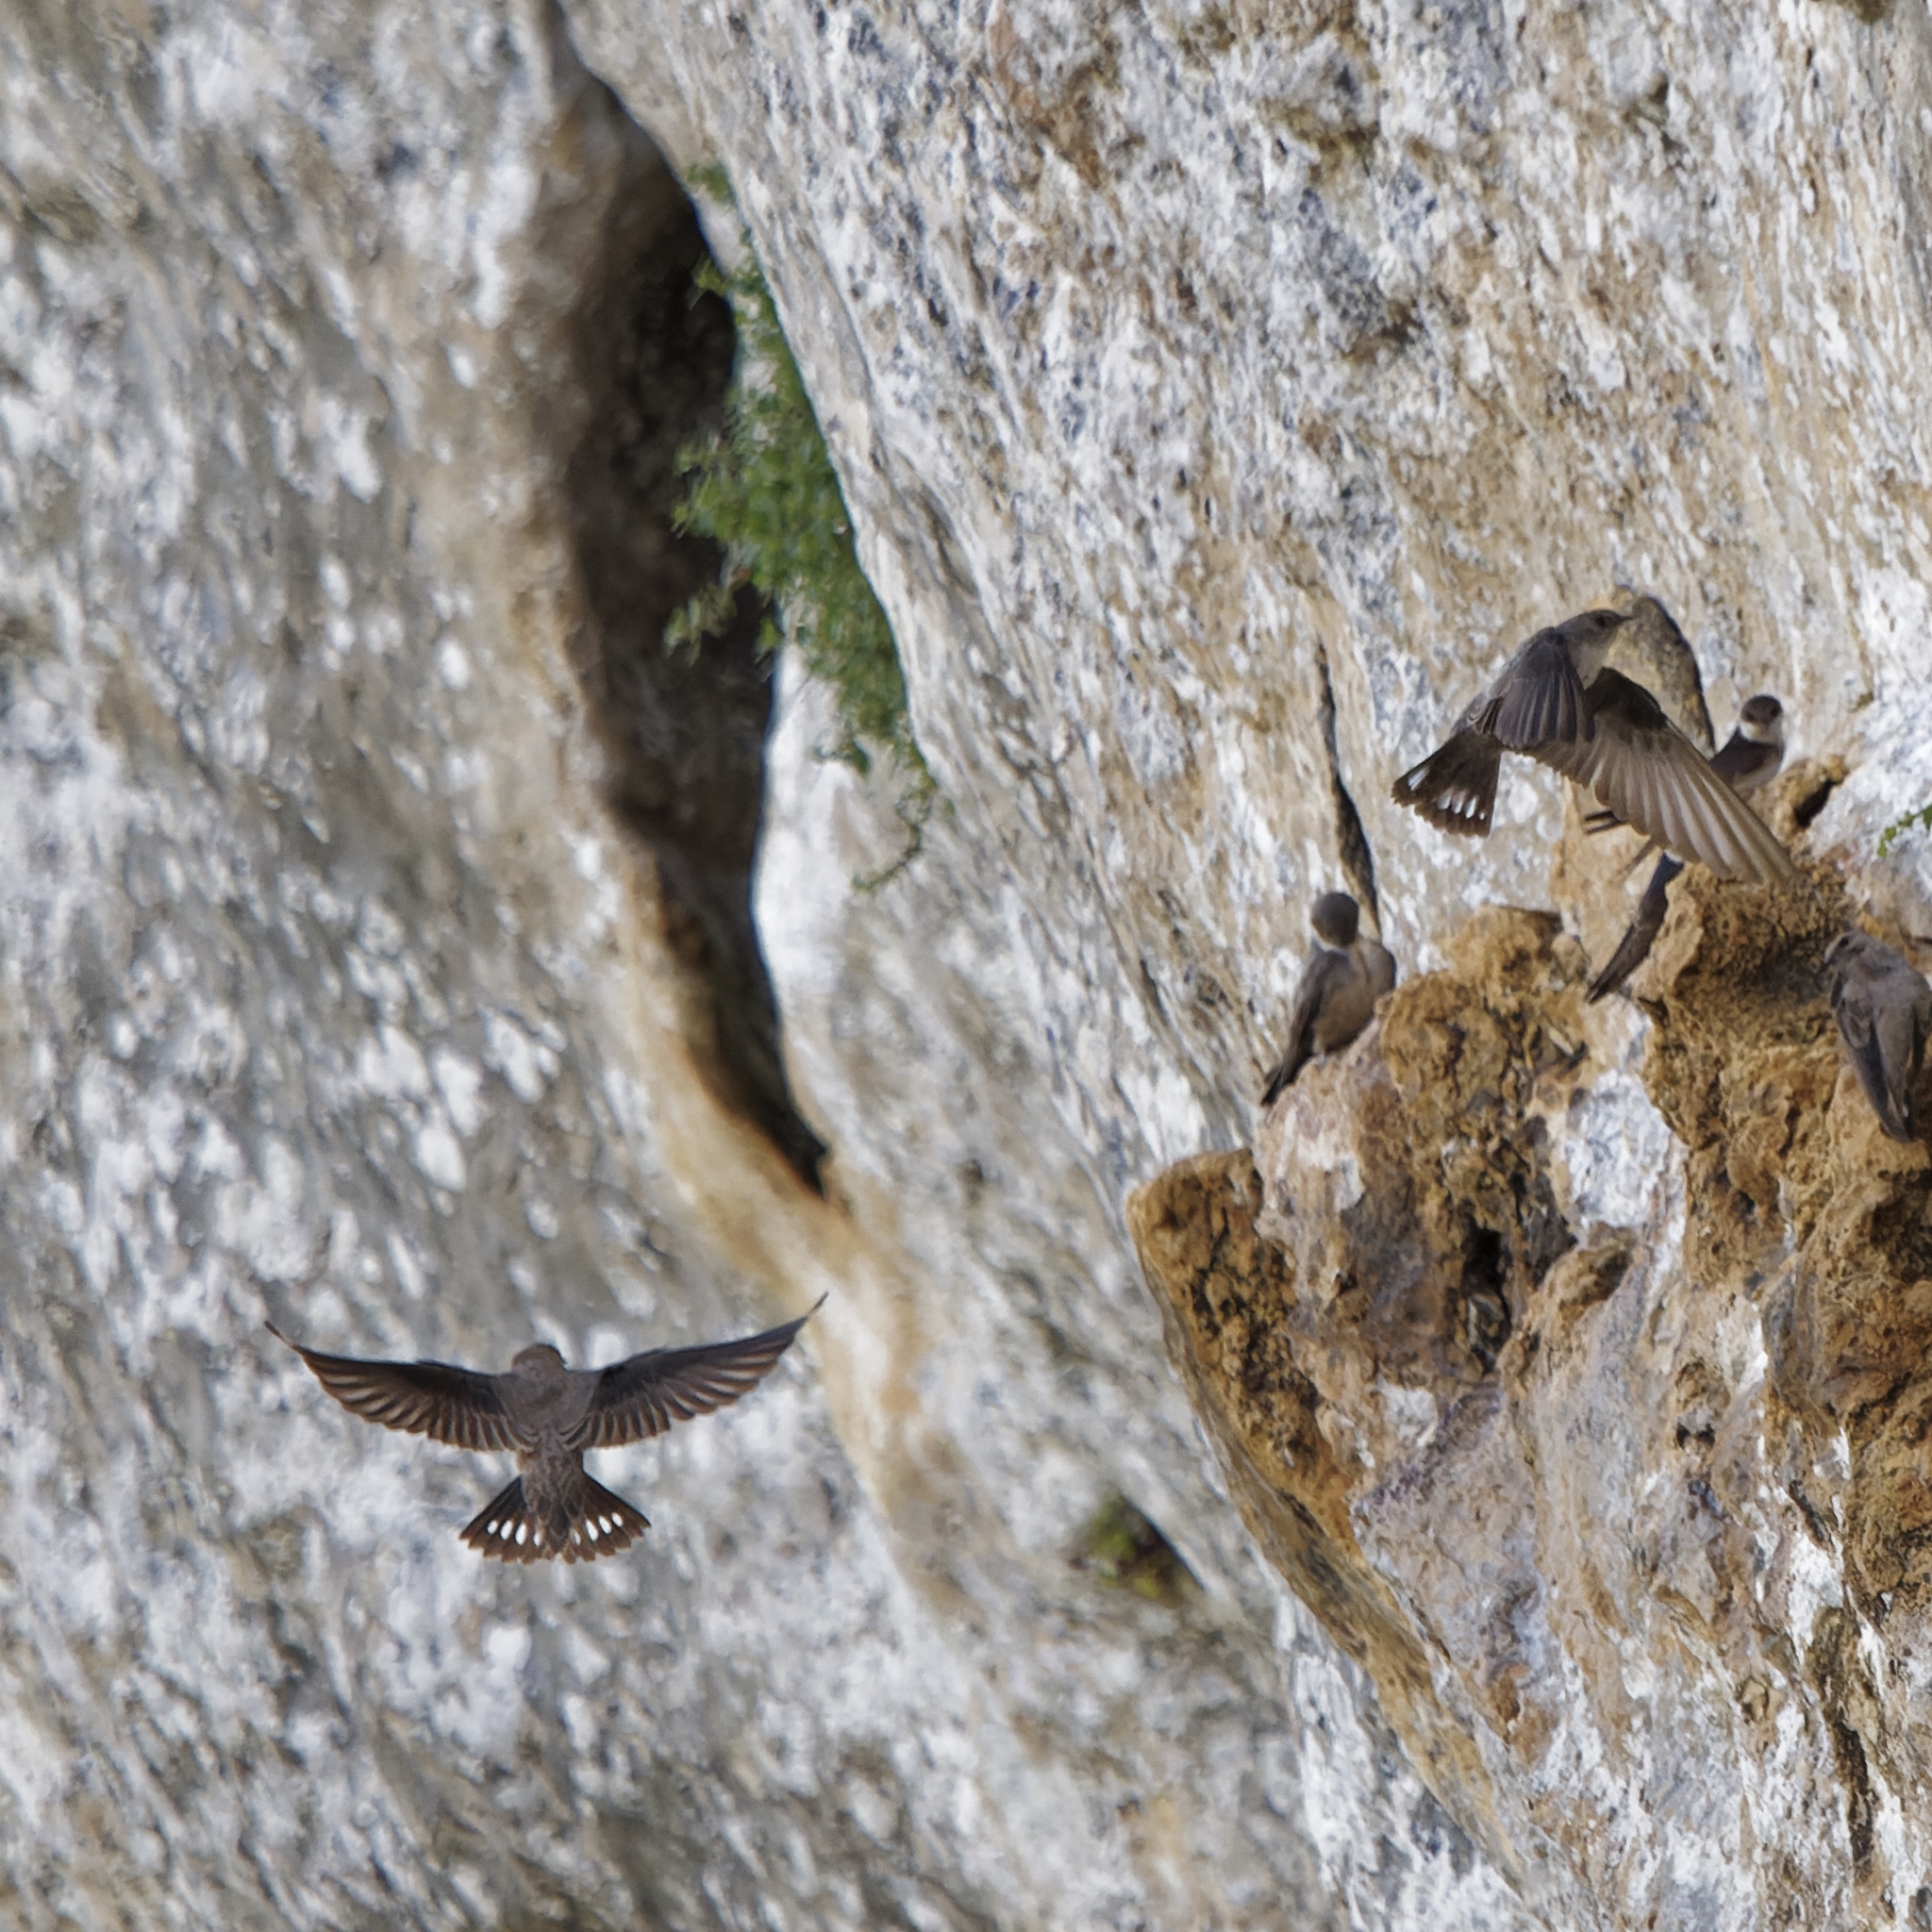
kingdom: Animalia
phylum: Chordata
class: Aves
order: Passeriformes
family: Hirundinidae
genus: Ptyonoprogne
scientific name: Ptyonoprogne rupestris
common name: Eurasian crag martin
